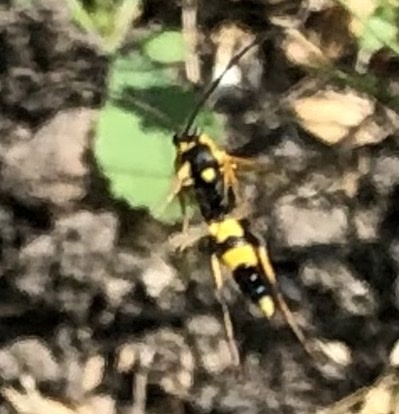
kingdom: Animalia
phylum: Arthropoda
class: Insecta
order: Hymenoptera
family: Ichneumonidae
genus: Amblyteles
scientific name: Amblyteles armatorius
